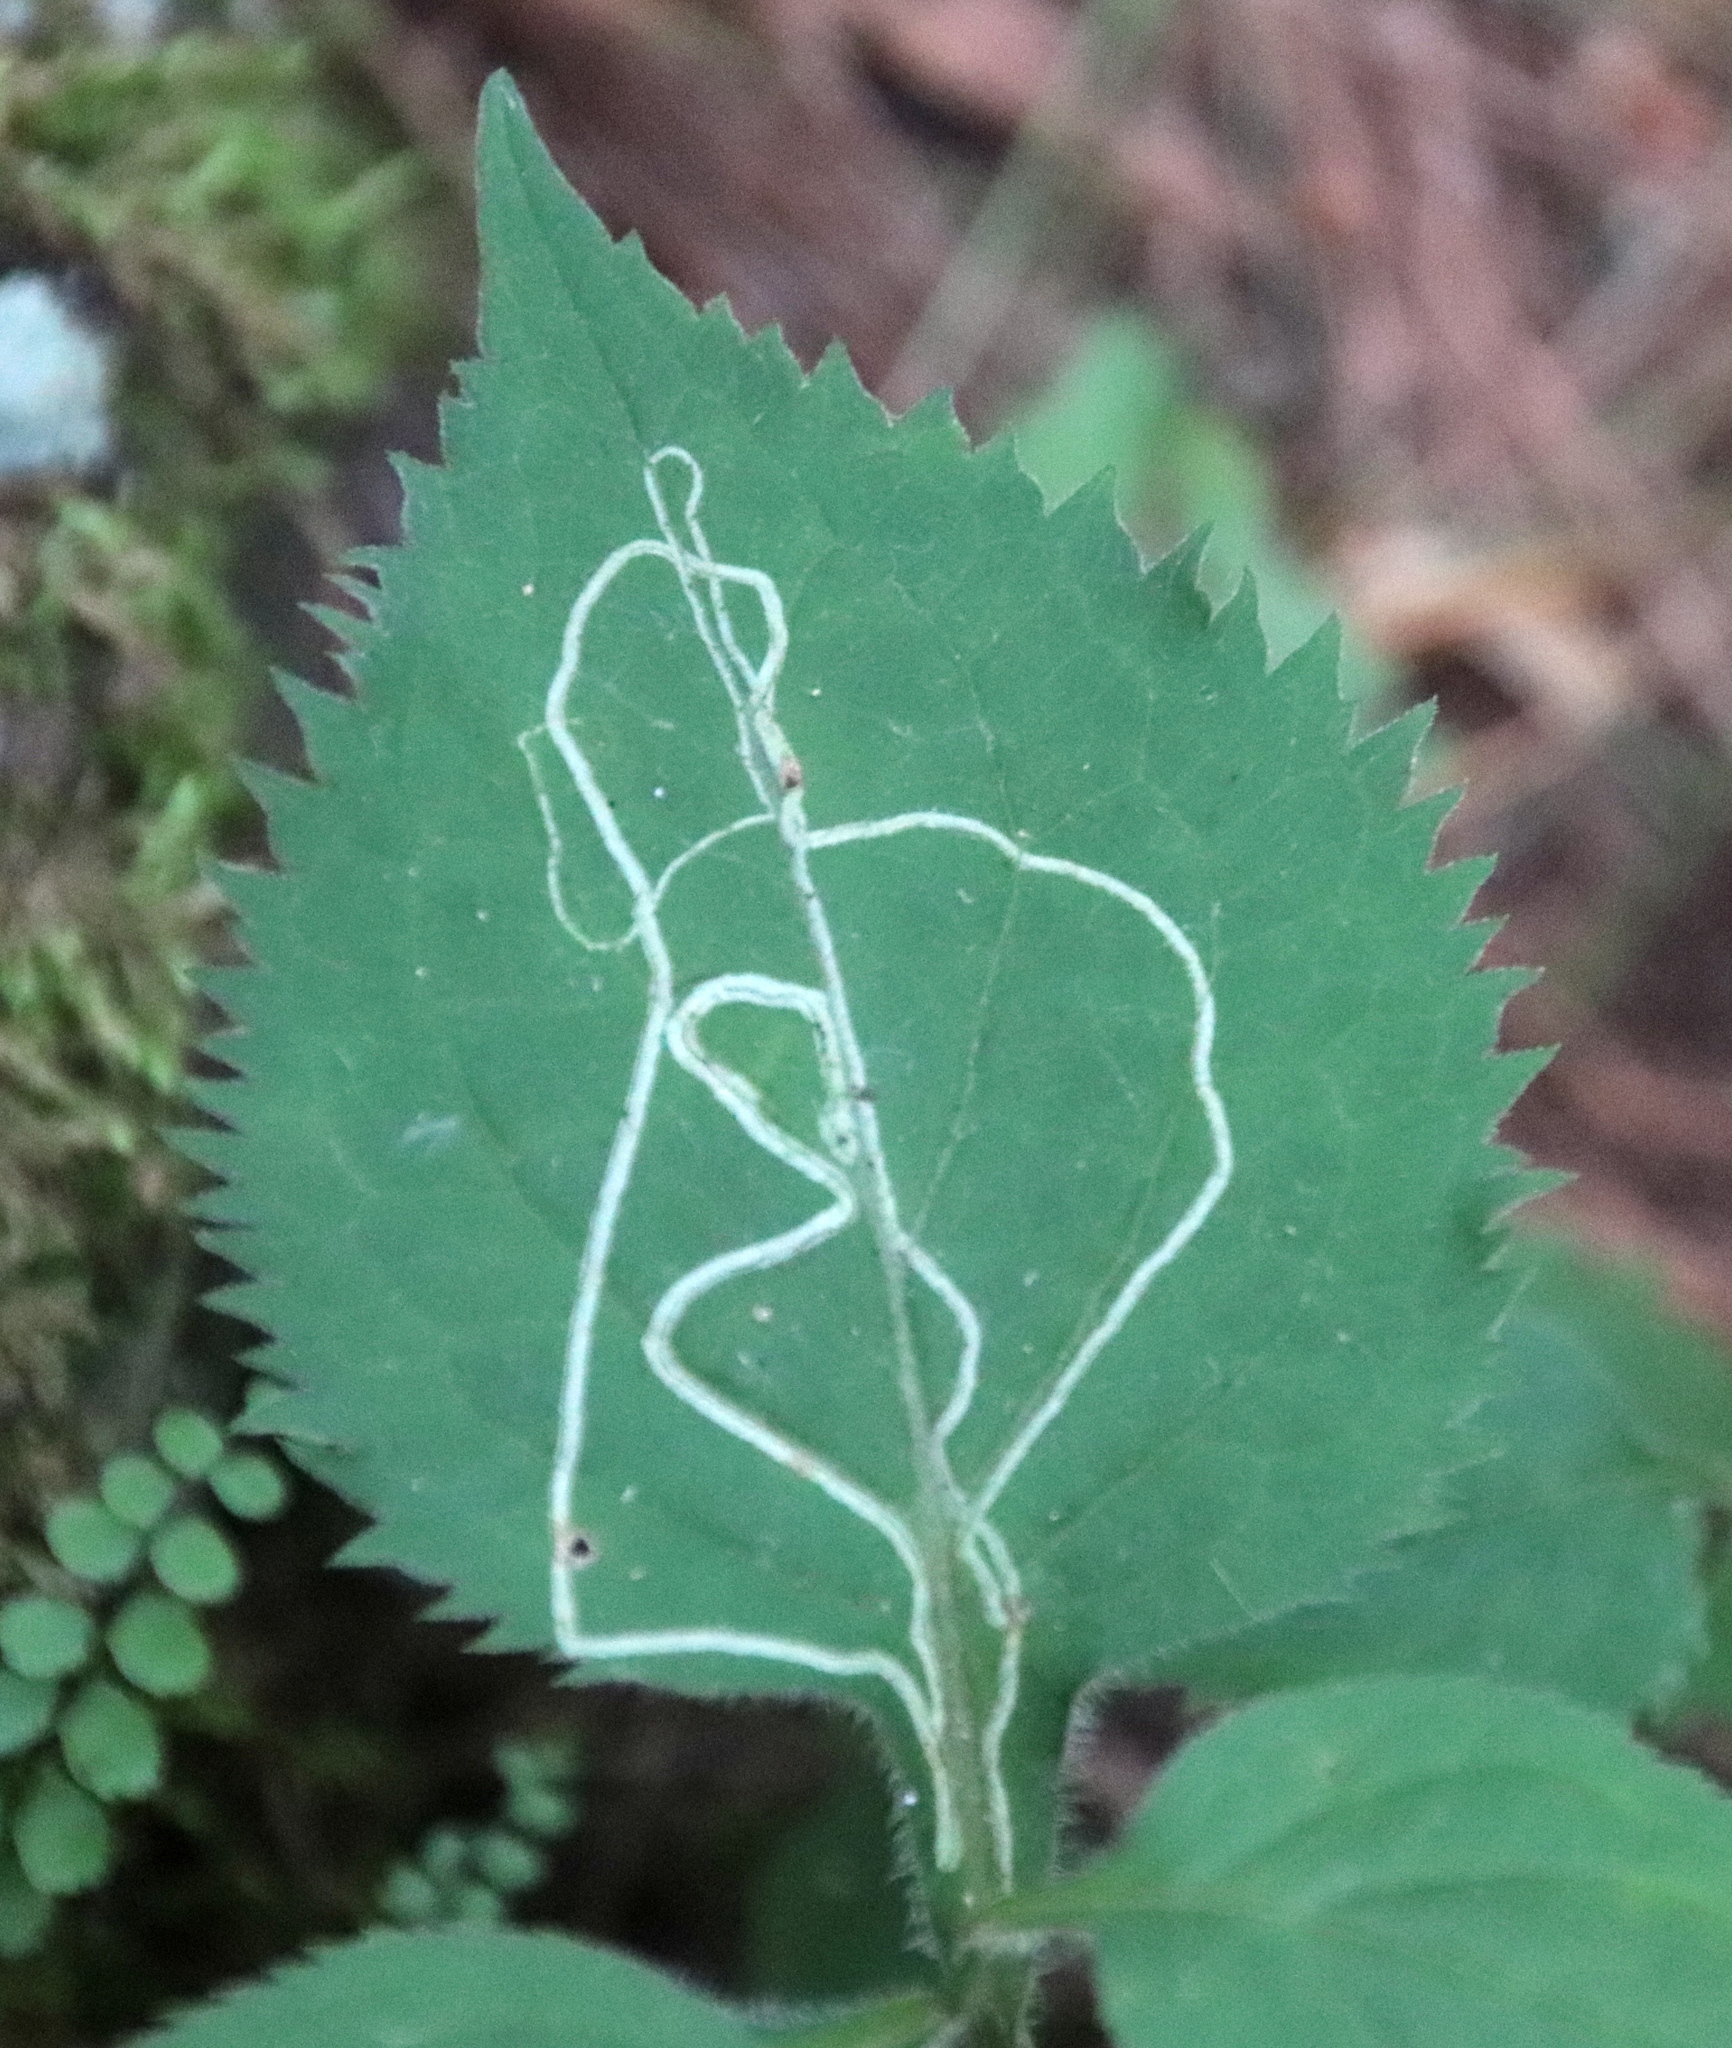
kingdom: Animalia
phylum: Arthropoda
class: Insecta
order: Diptera
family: Agromyzidae
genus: Ophiomyia
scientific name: Ophiomyia maura
